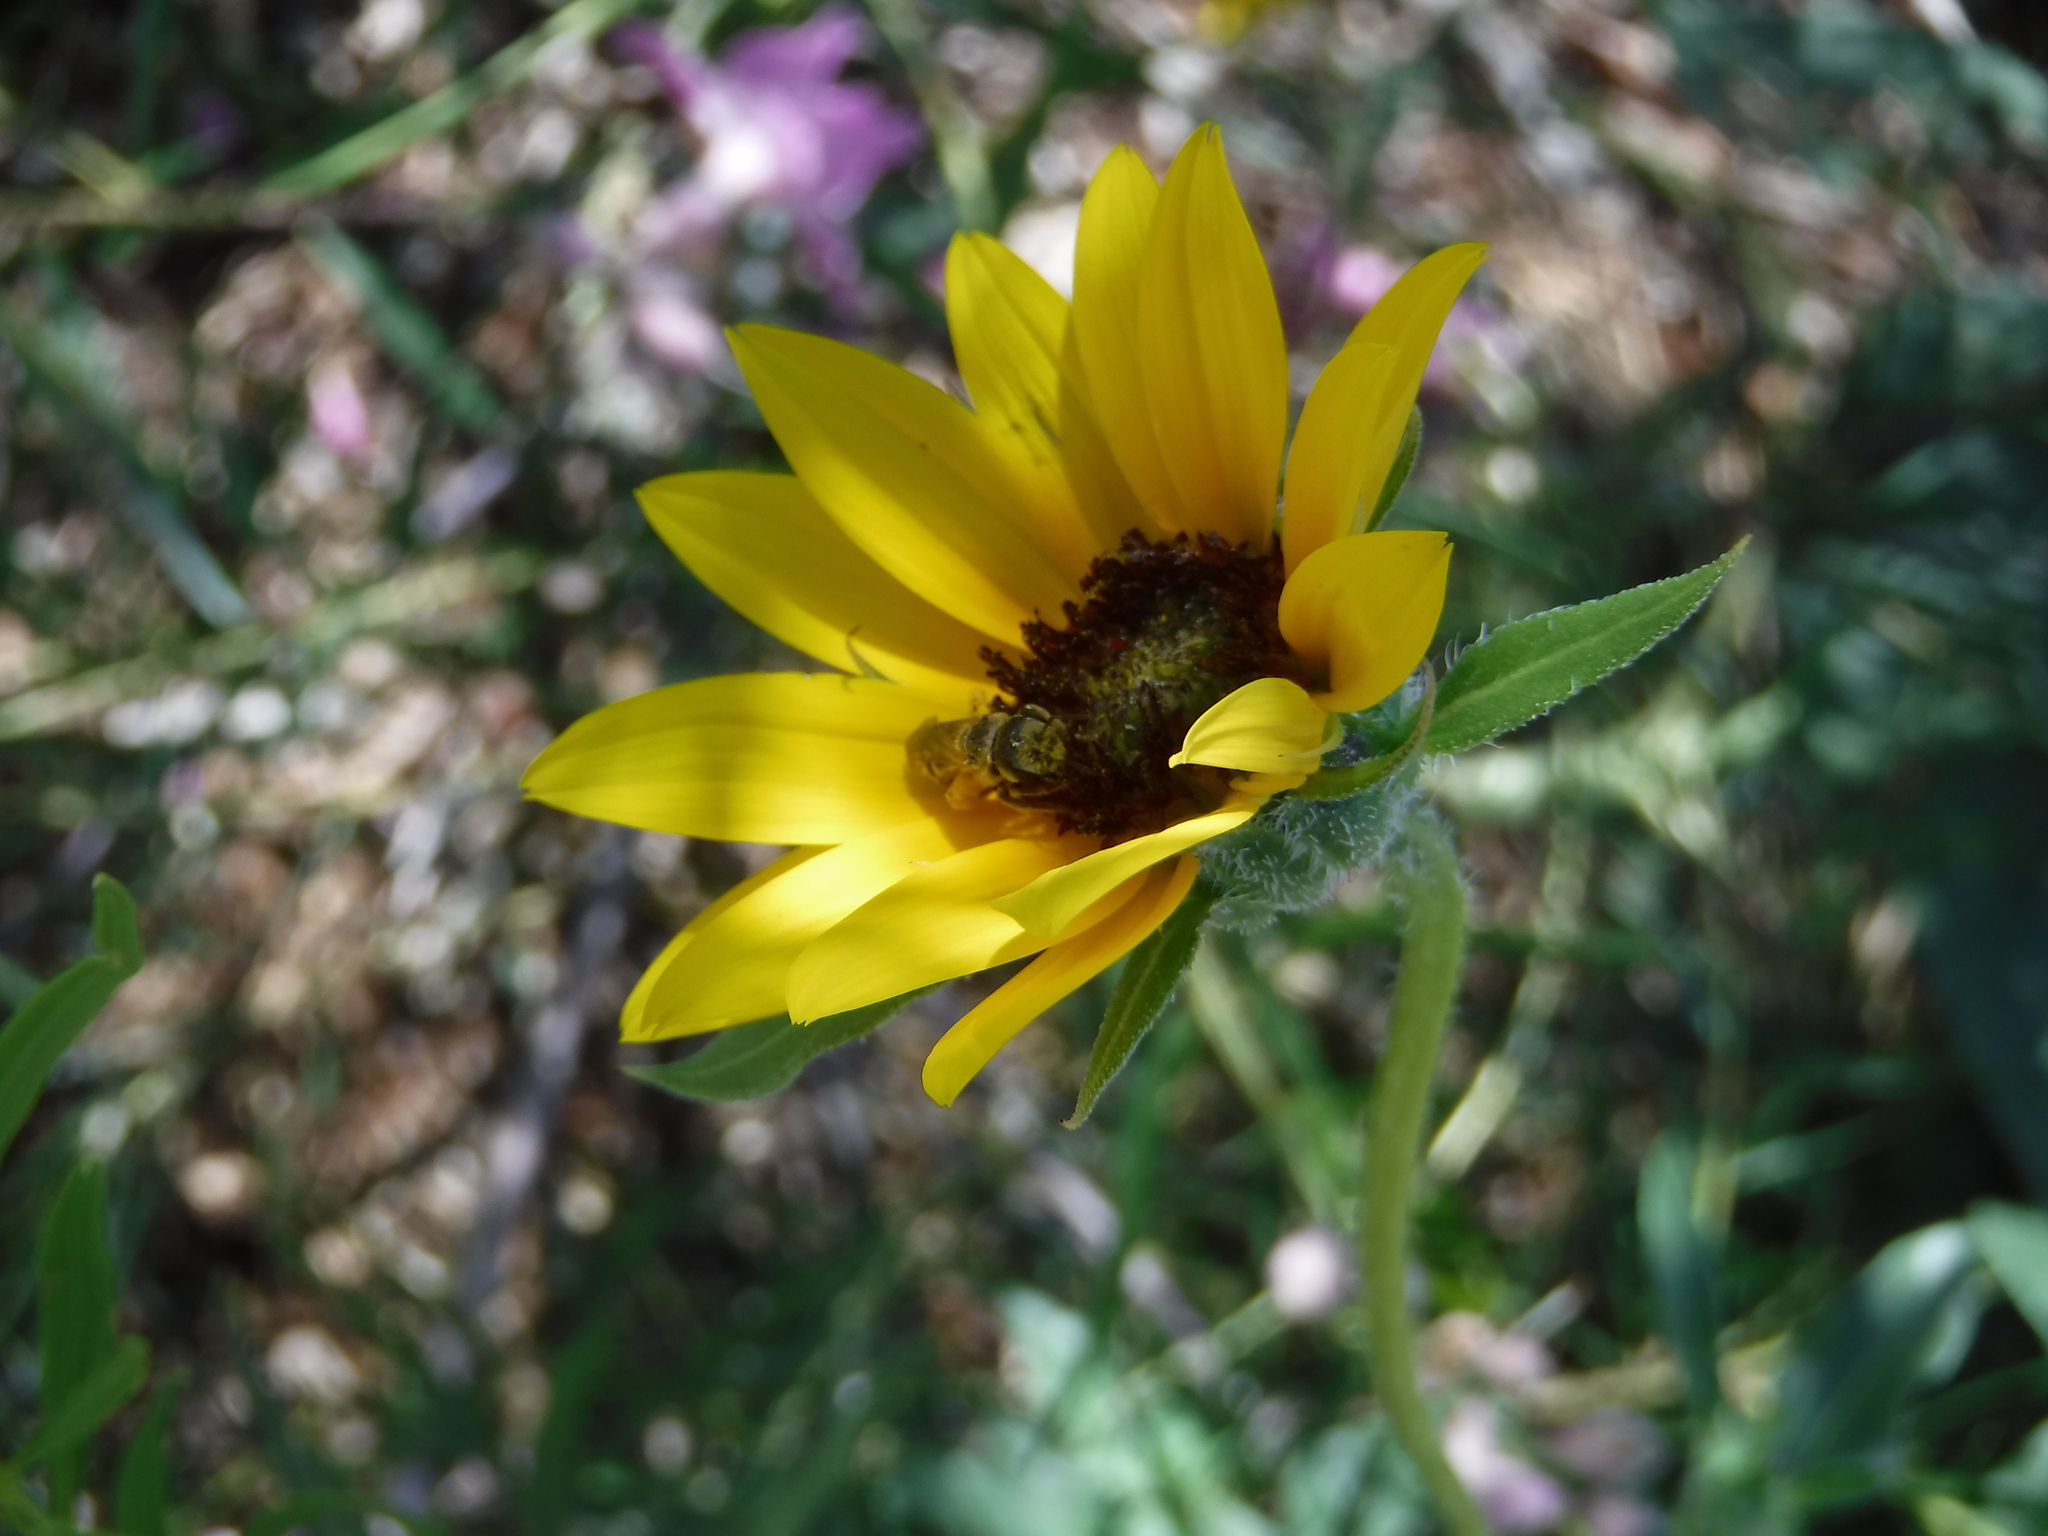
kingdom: Animalia
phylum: Arthropoda
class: Insecta
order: Hymenoptera
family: Halictidae
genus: Halictus
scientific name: Halictus ligatus
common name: Ligated furrow bee
